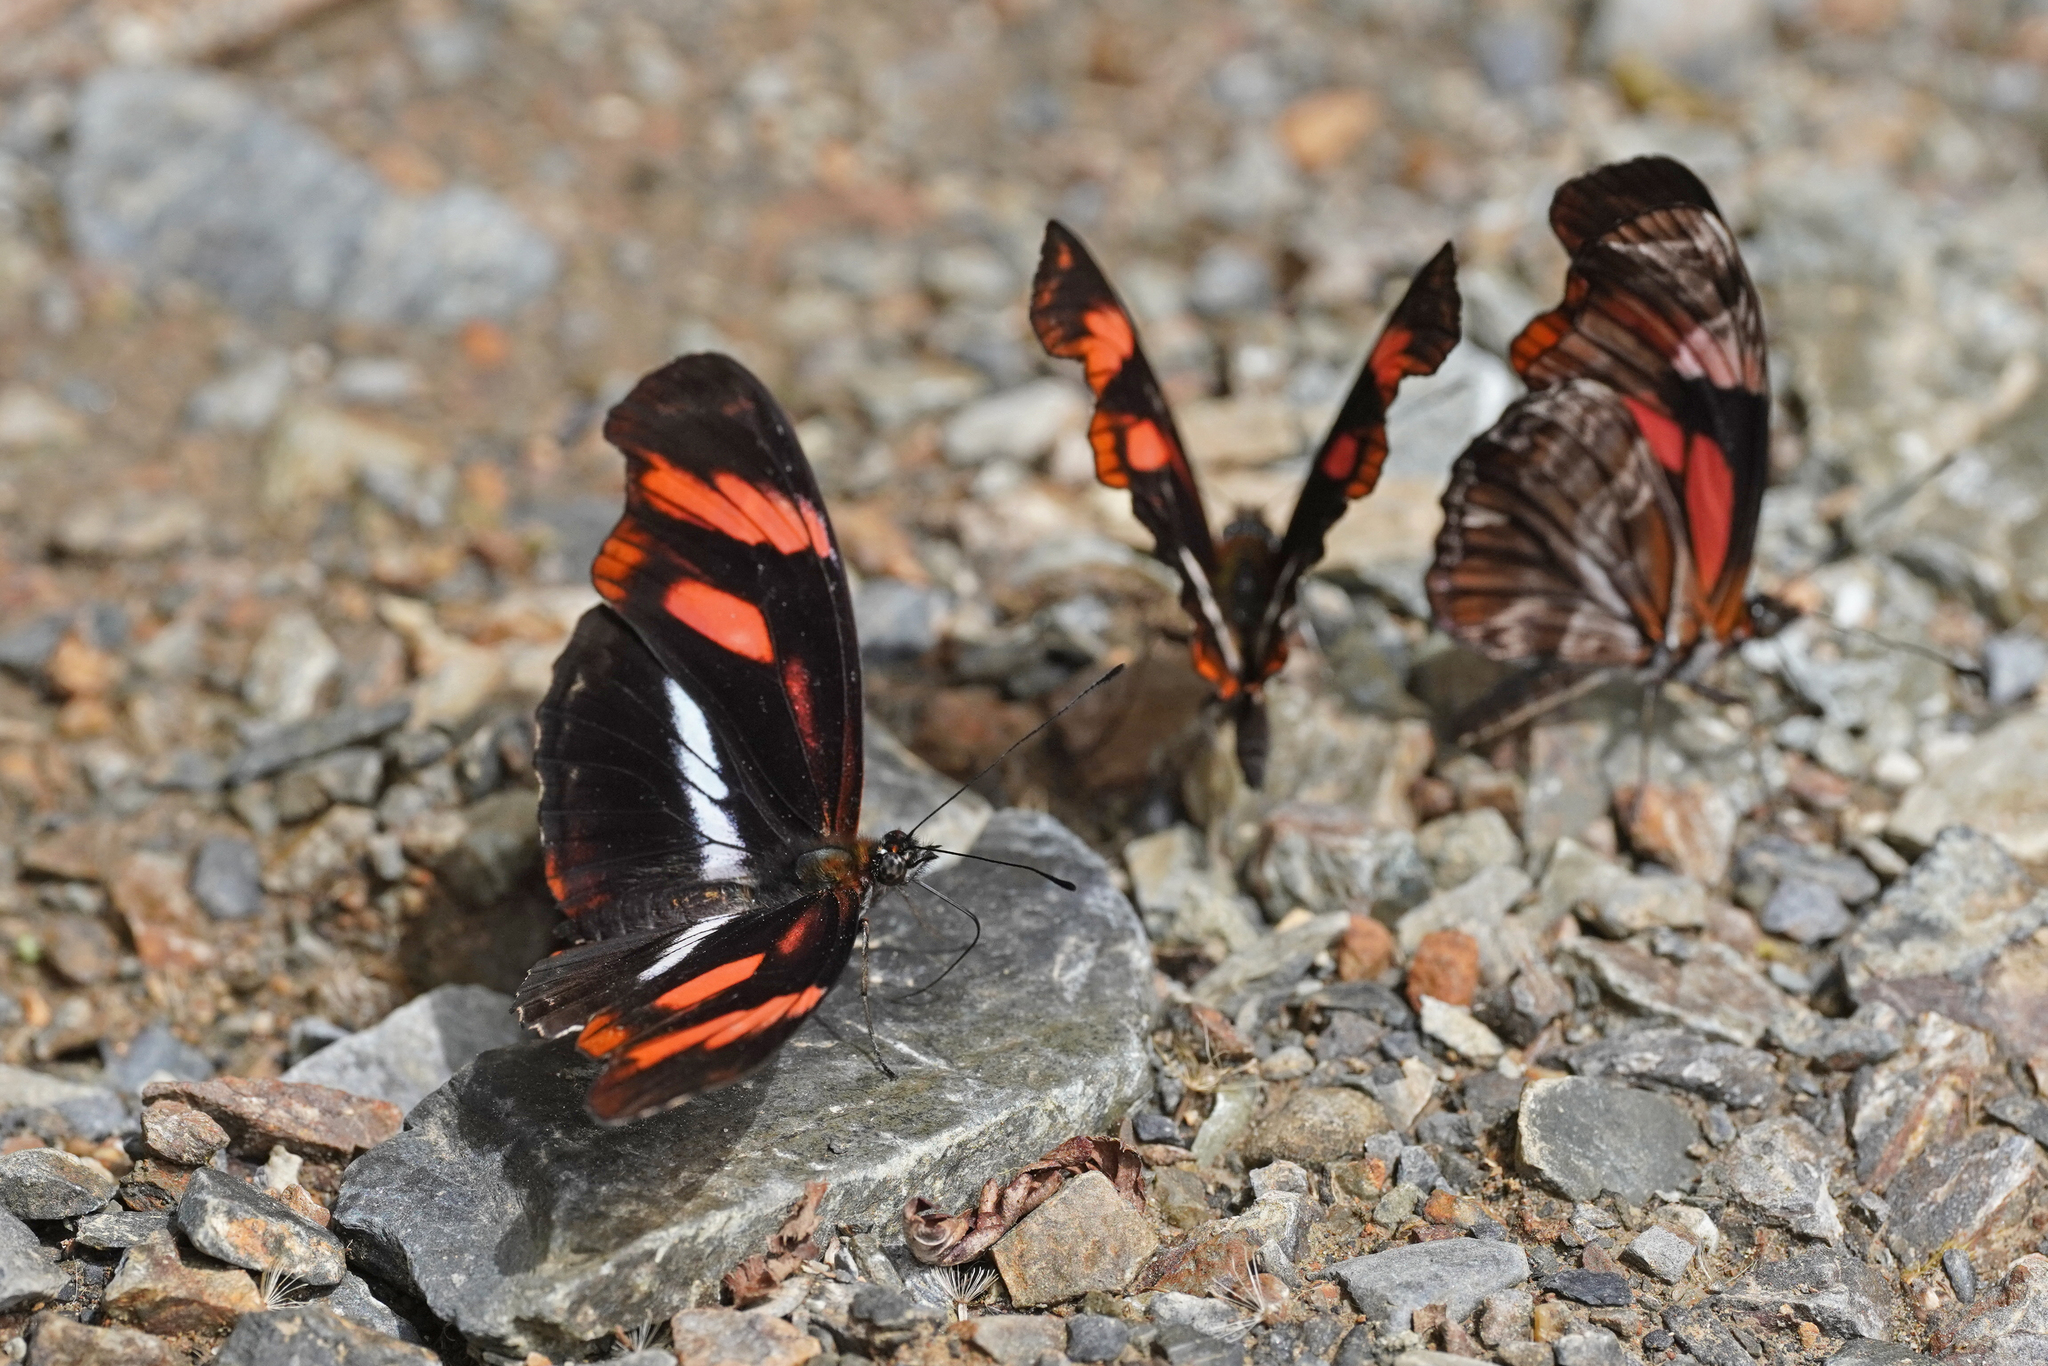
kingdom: Animalia
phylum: Arthropoda
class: Insecta
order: Lepidoptera
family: Nymphalidae
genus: Podotricha
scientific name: Podotricha telesiphe
